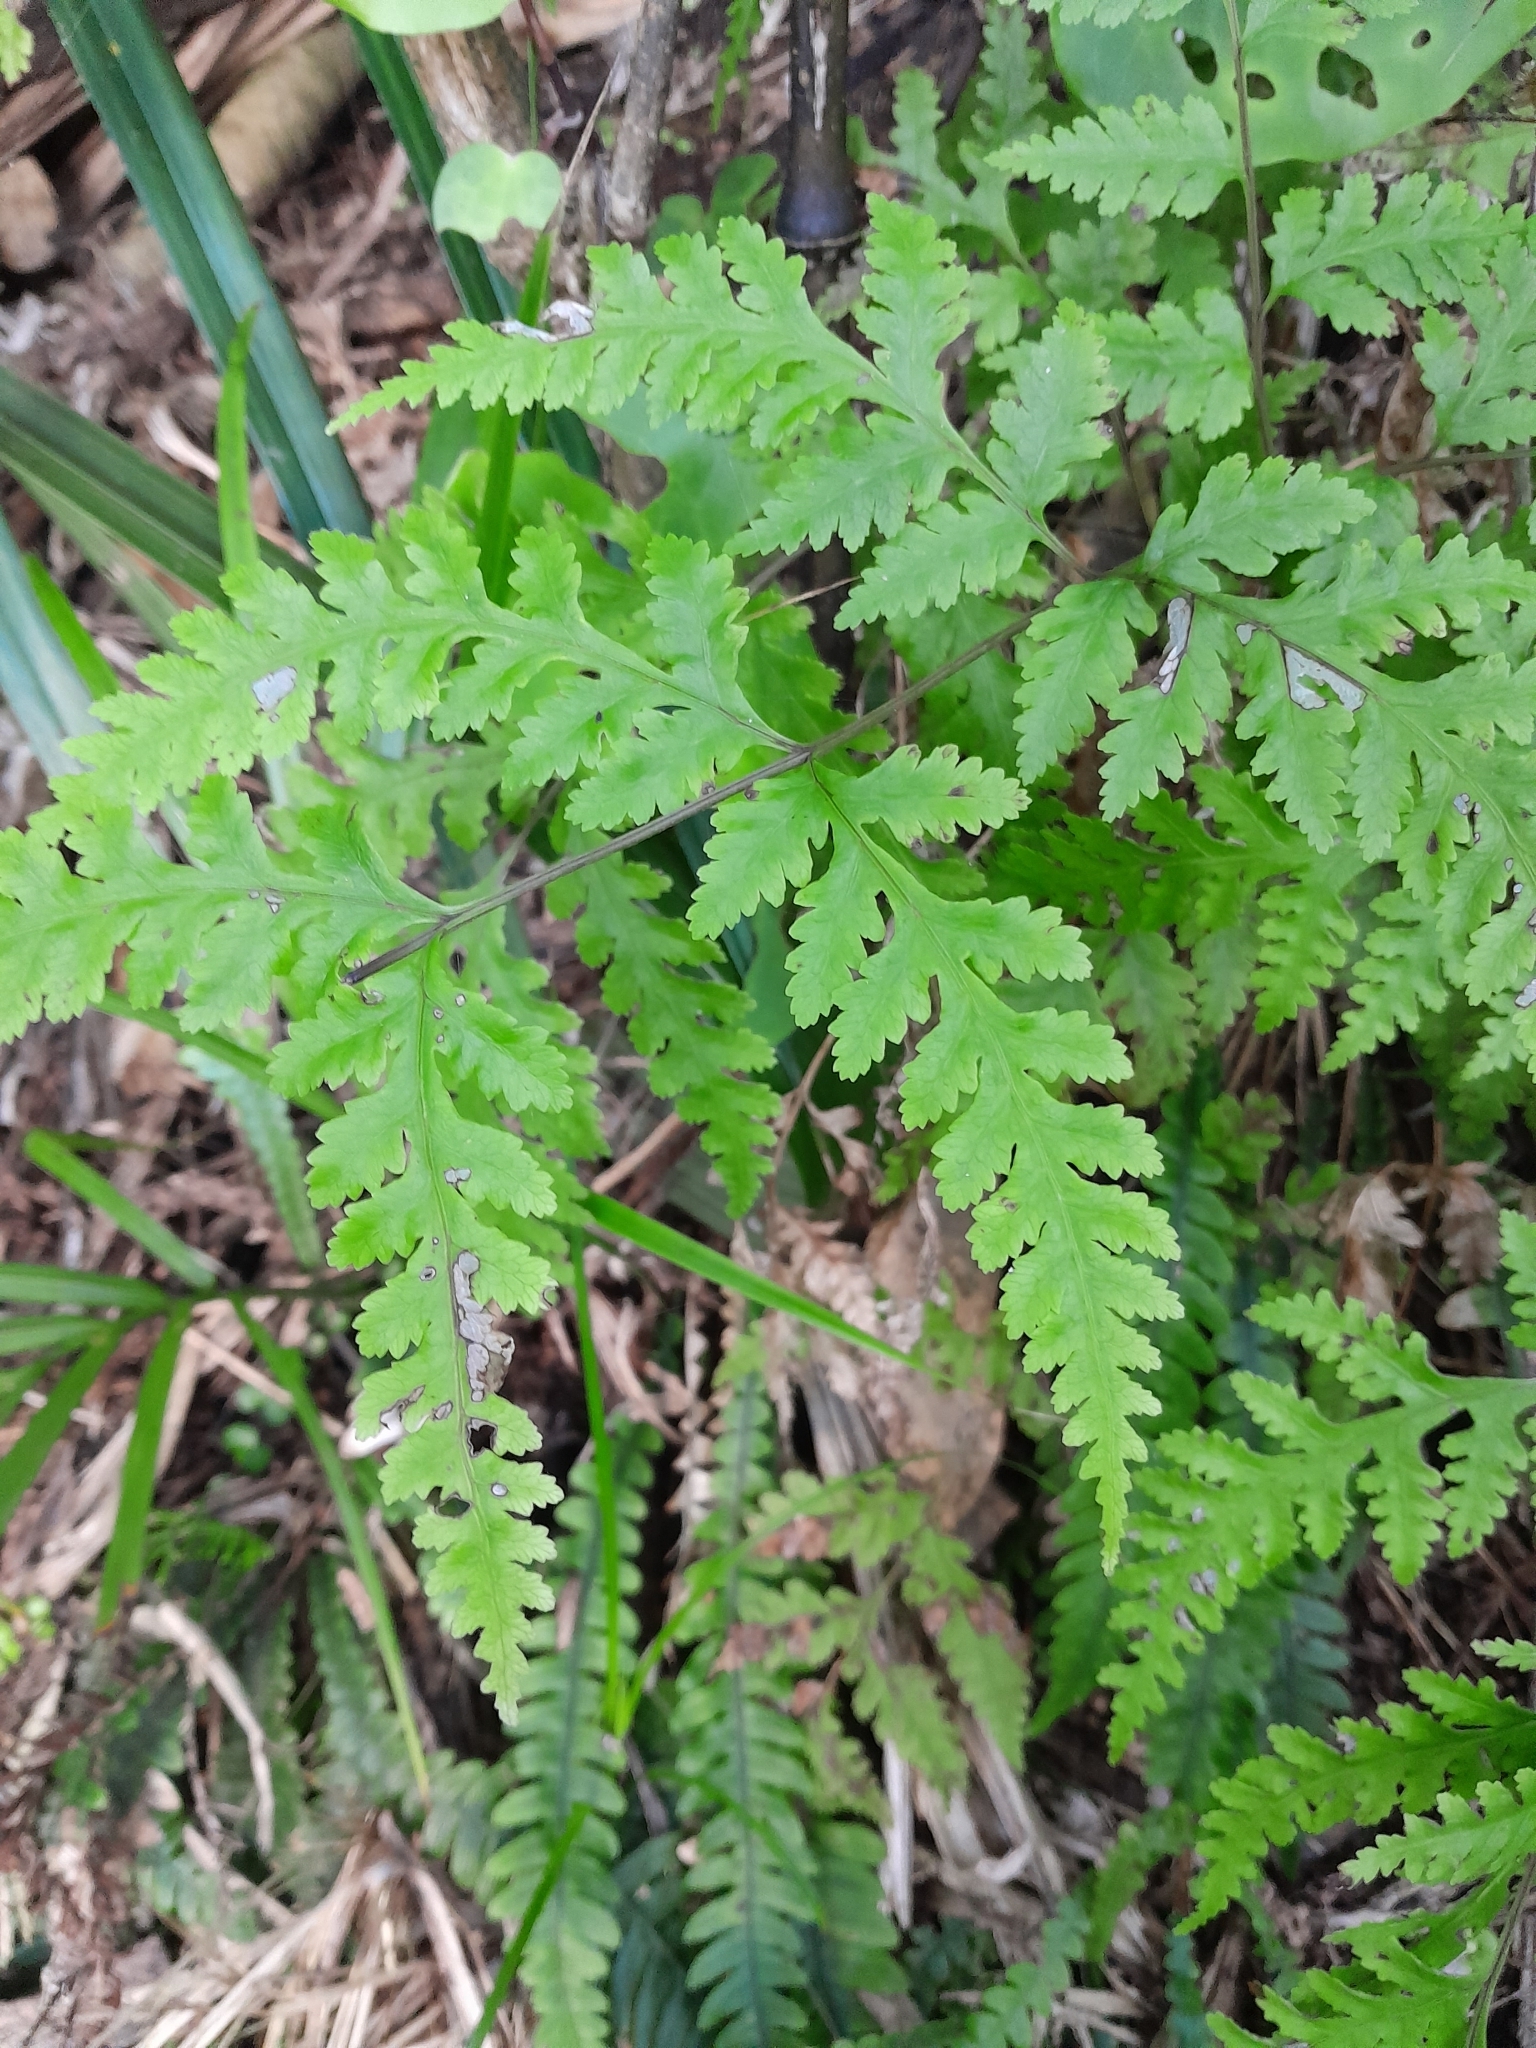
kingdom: Plantae
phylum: Tracheophyta
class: Polypodiopsida
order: Polypodiales
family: Pteridaceae
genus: Pteris
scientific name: Pteris macilenta
